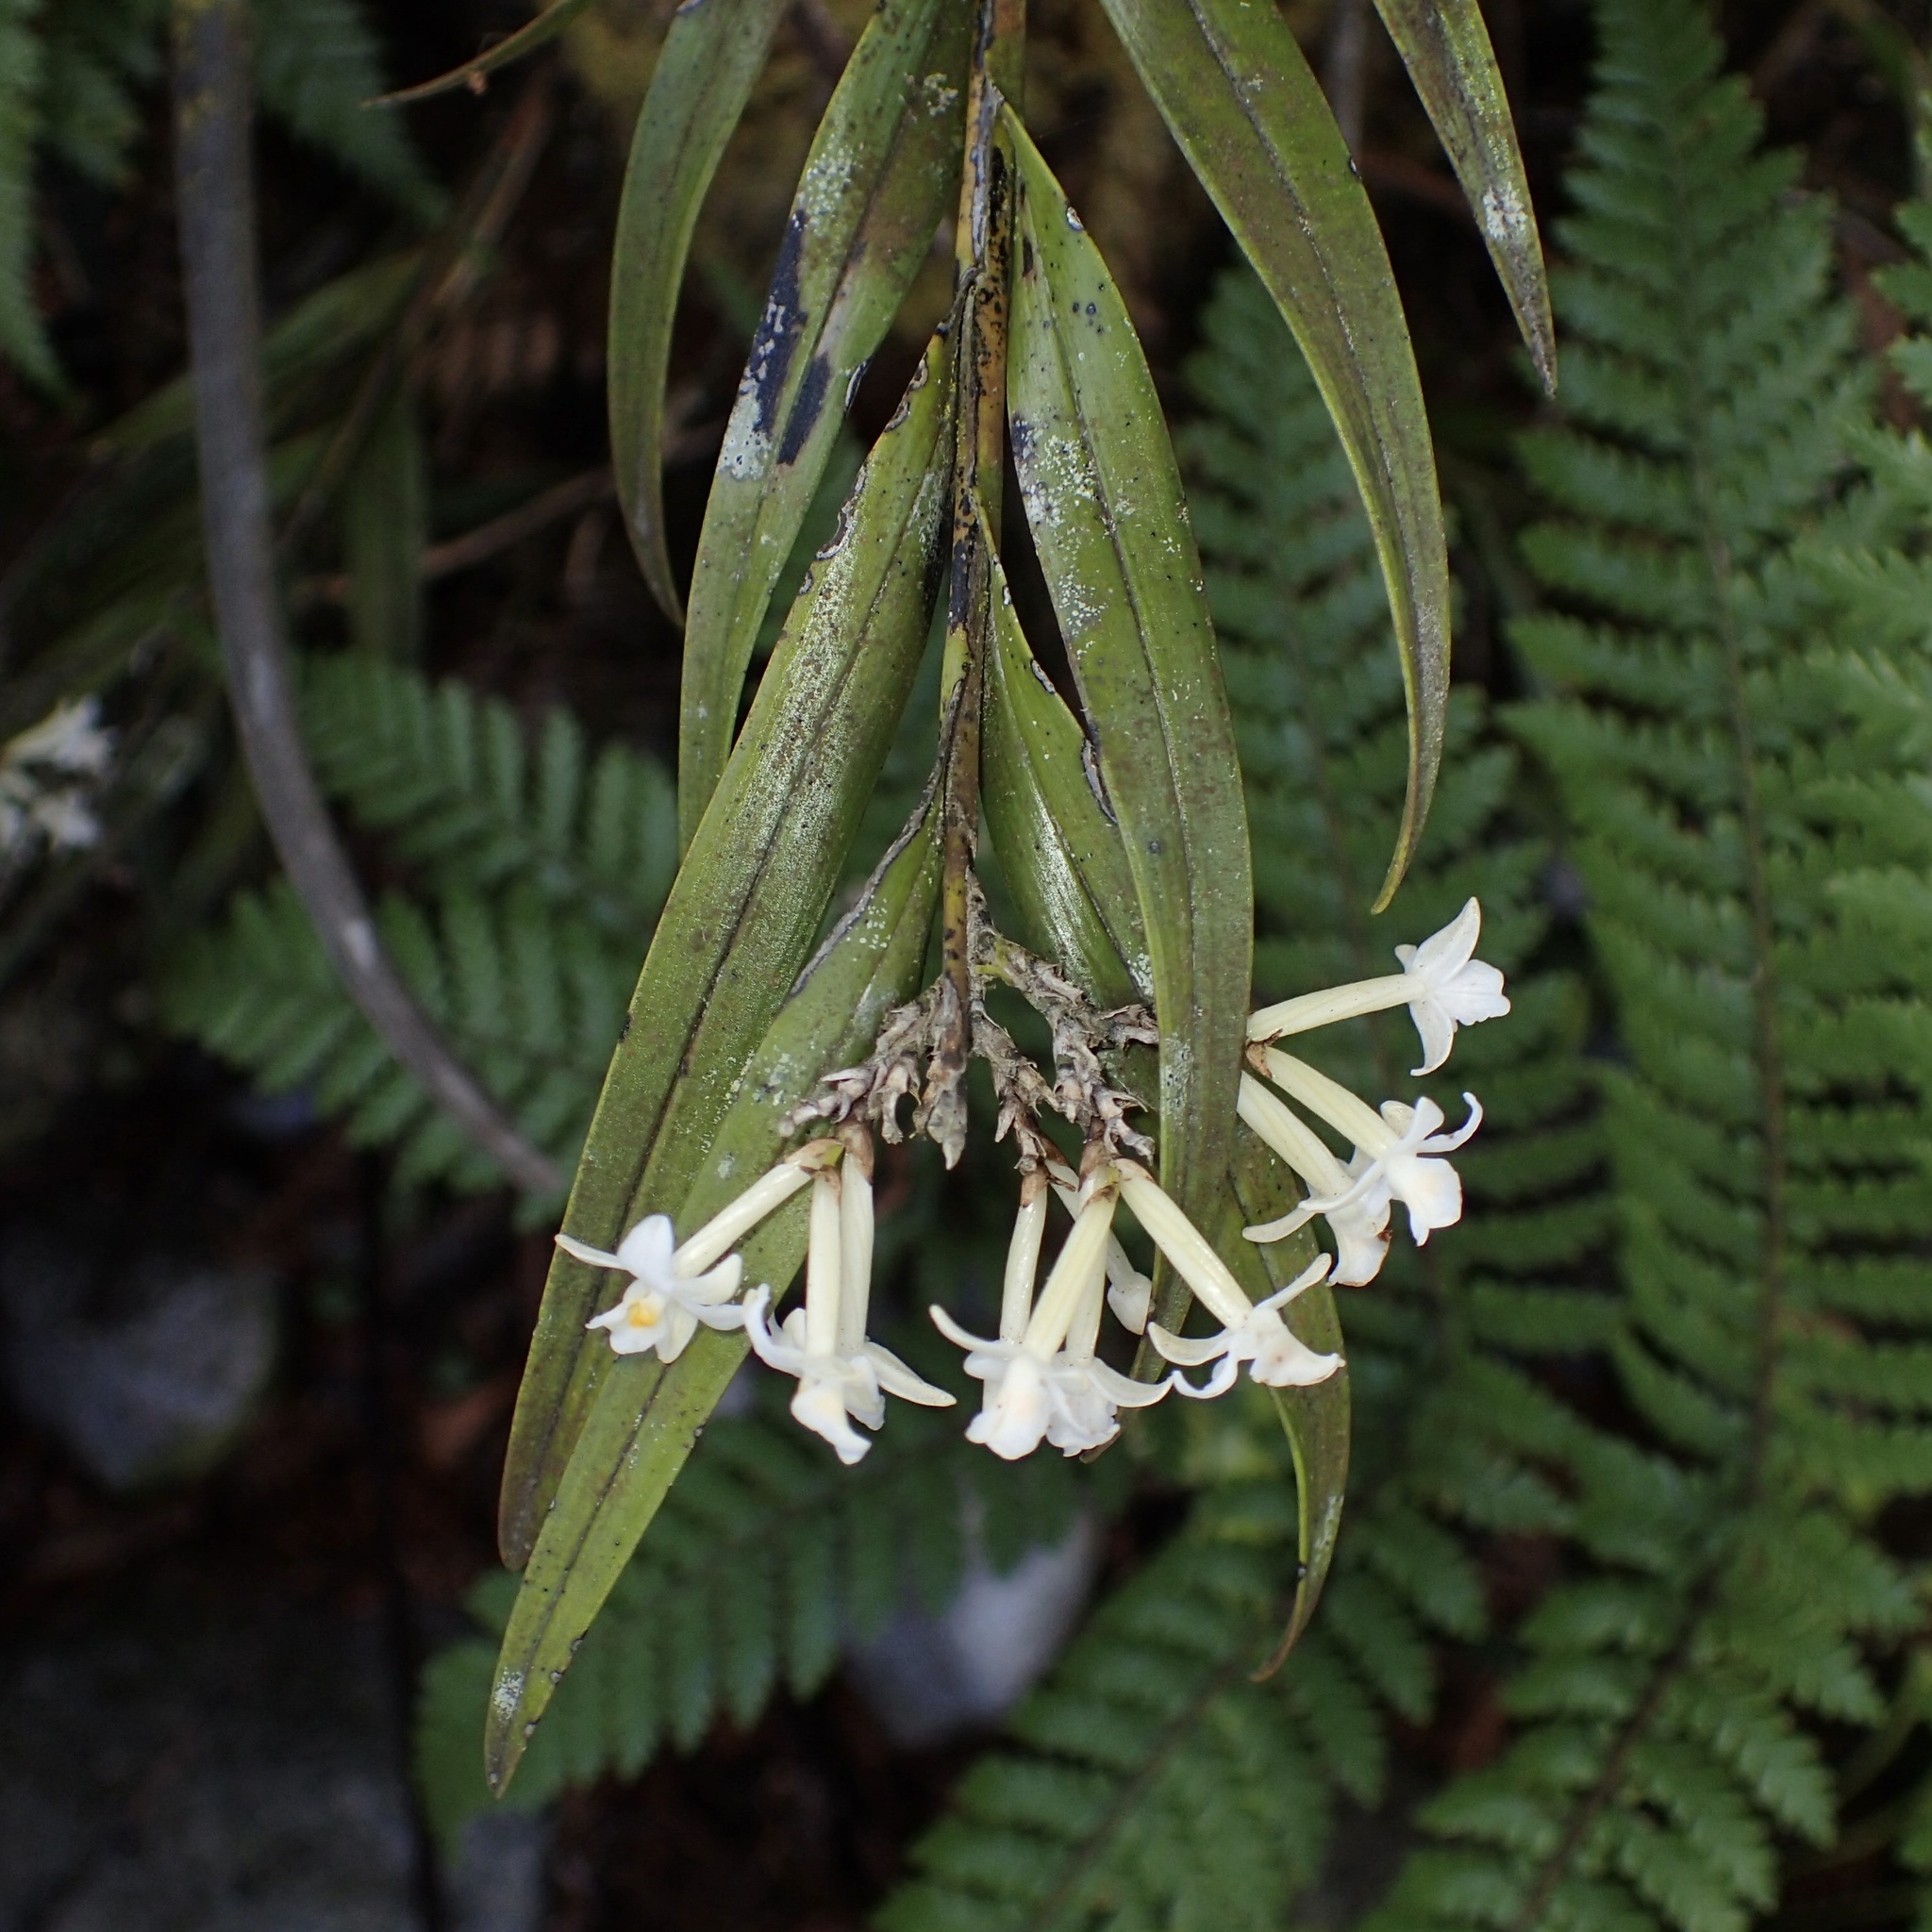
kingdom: Plantae
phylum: Tracheophyta
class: Liliopsida
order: Asparagales
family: Orchidaceae
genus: Earina
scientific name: Earina autumnalis
